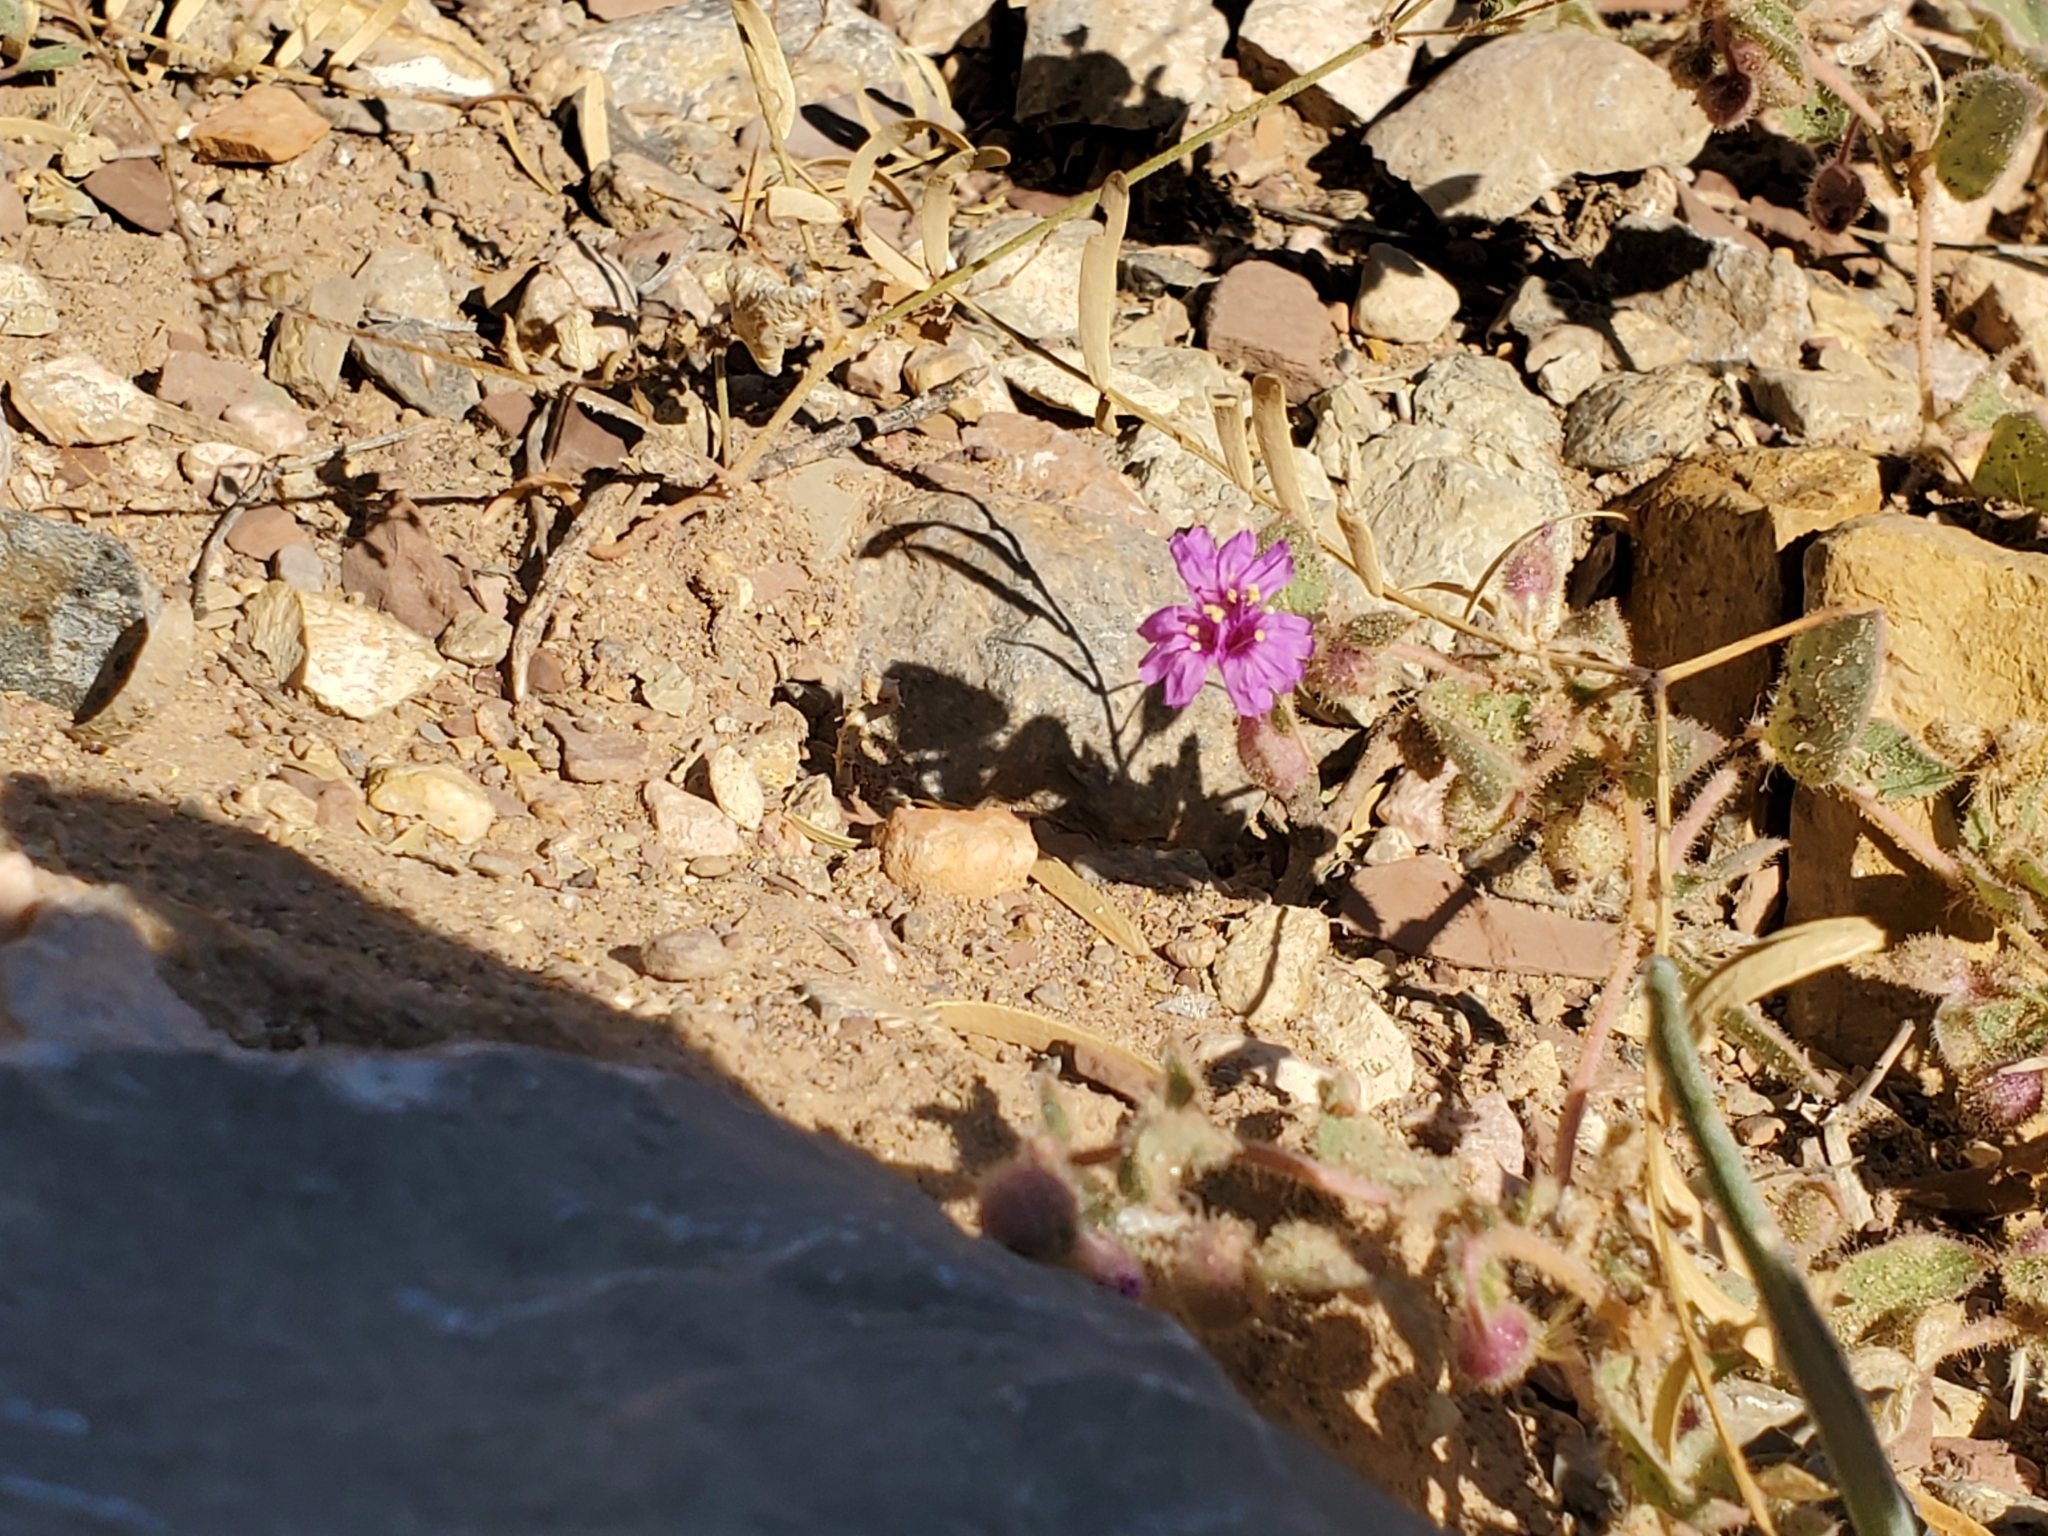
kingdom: Plantae
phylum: Tracheophyta
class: Magnoliopsida
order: Caryophyllales
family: Nyctaginaceae
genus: Allionia
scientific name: Allionia incarnata
